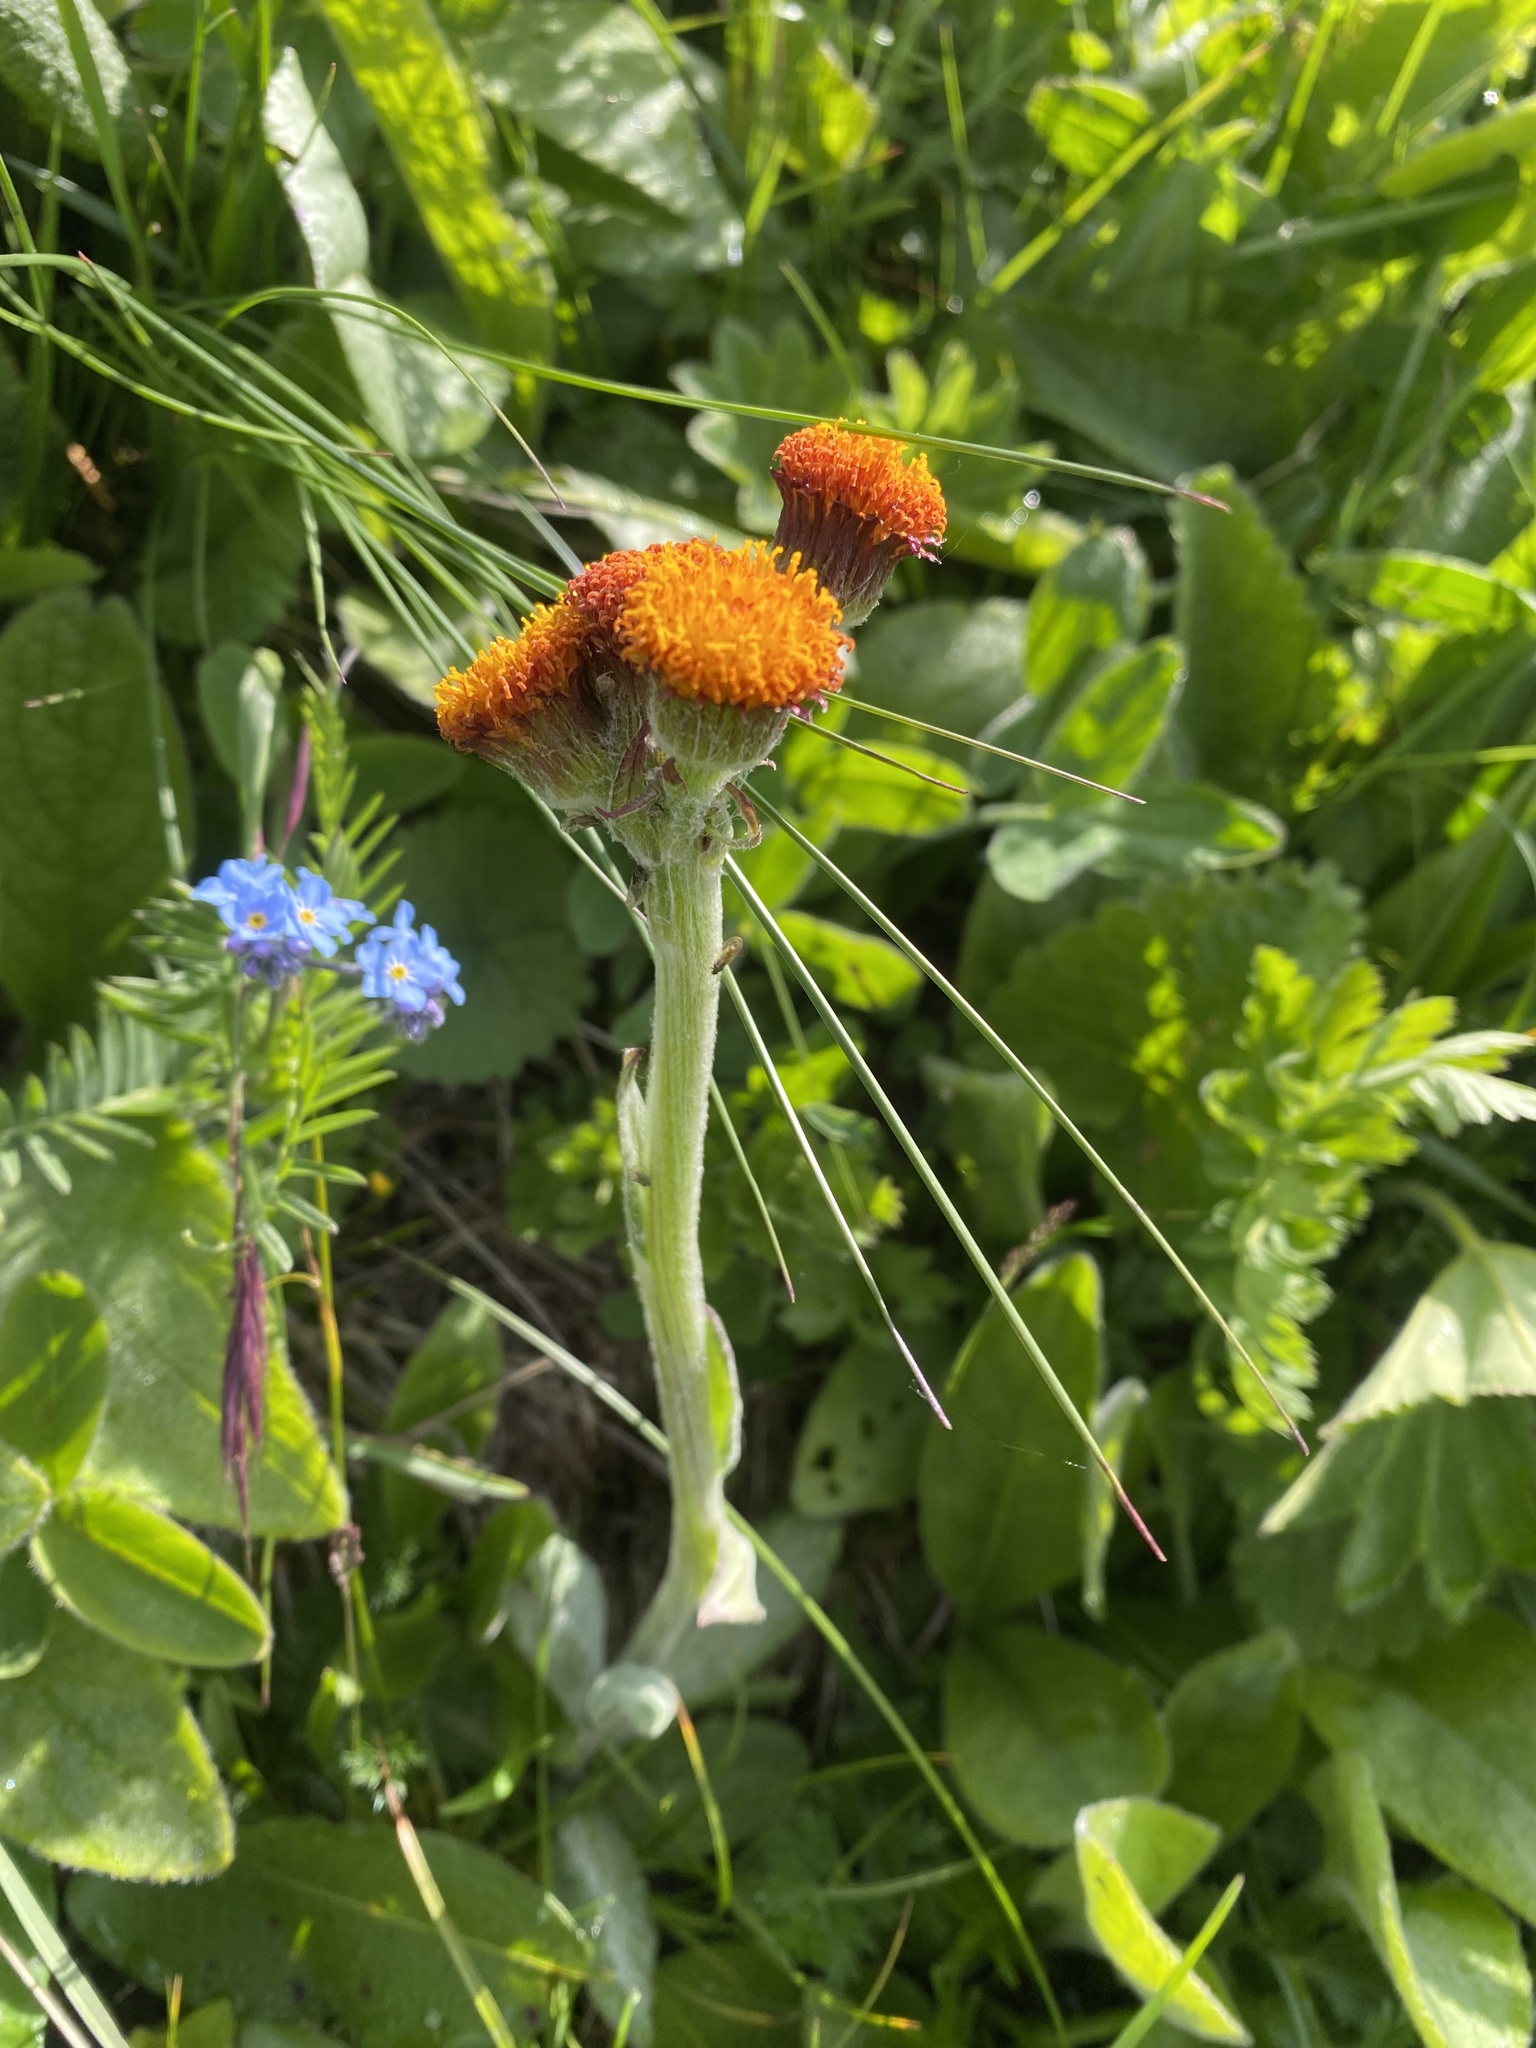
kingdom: Plantae
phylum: Tracheophyta
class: Magnoliopsida
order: Asterales
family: Asteraceae
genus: Tephroseris
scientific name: Tephroseris integrifolia
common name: Field fleawort
